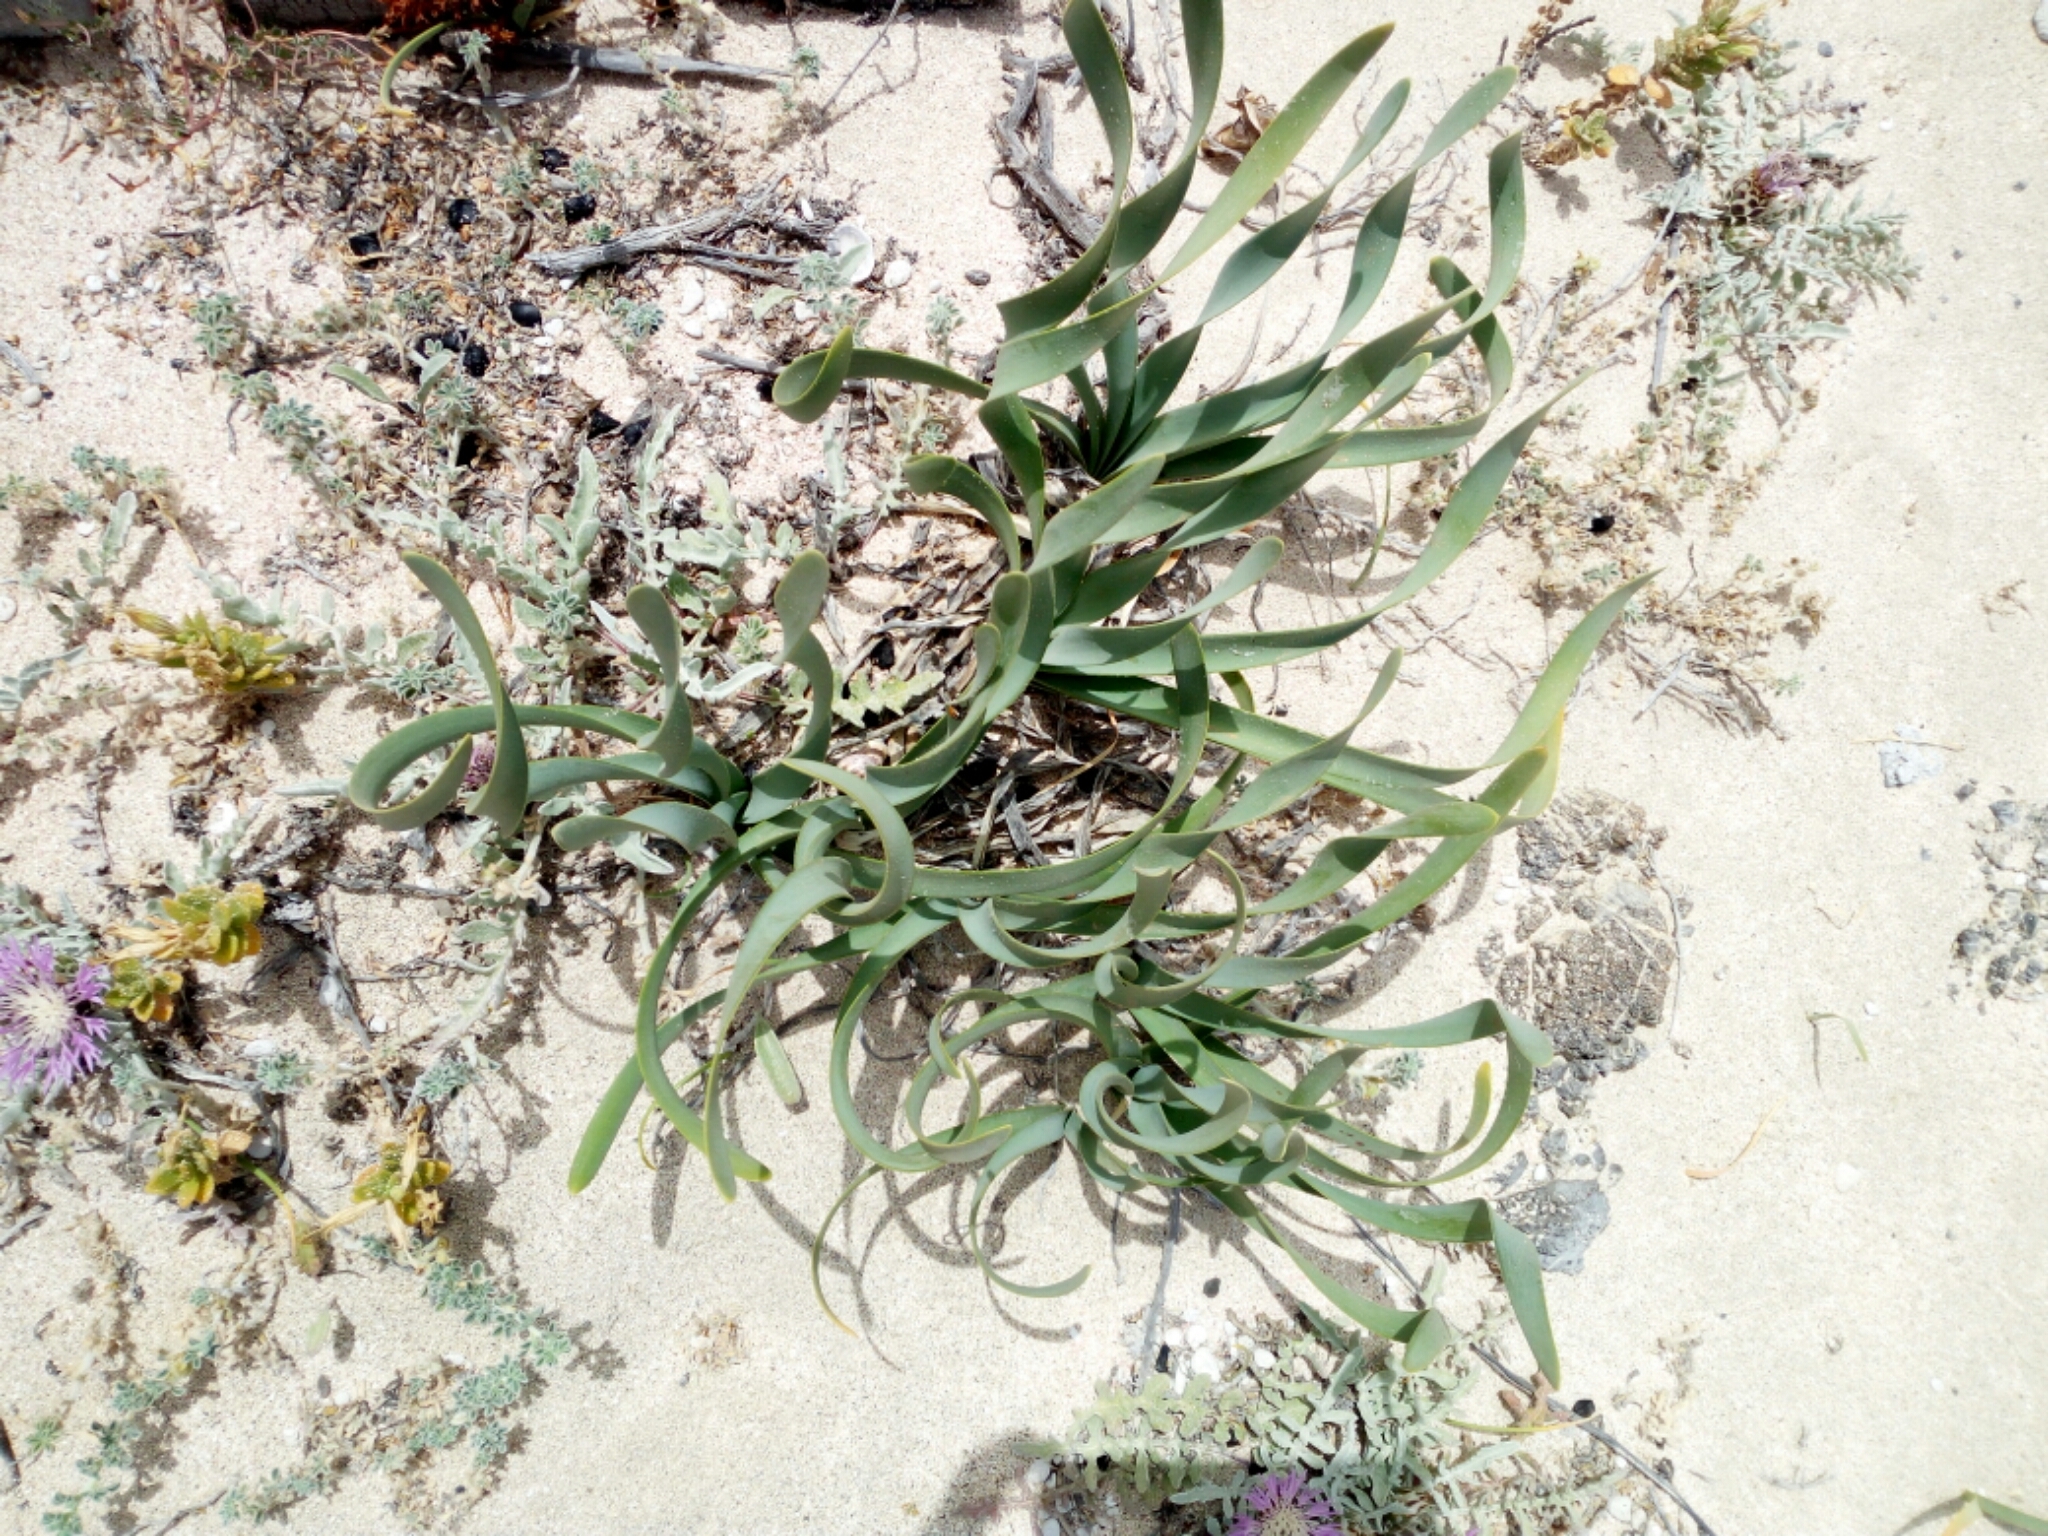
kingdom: Plantae
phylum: Tracheophyta
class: Liliopsida
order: Asparagales
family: Amaryllidaceae
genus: Pancratium
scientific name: Pancratium maritimum
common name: Sea-daffodil
